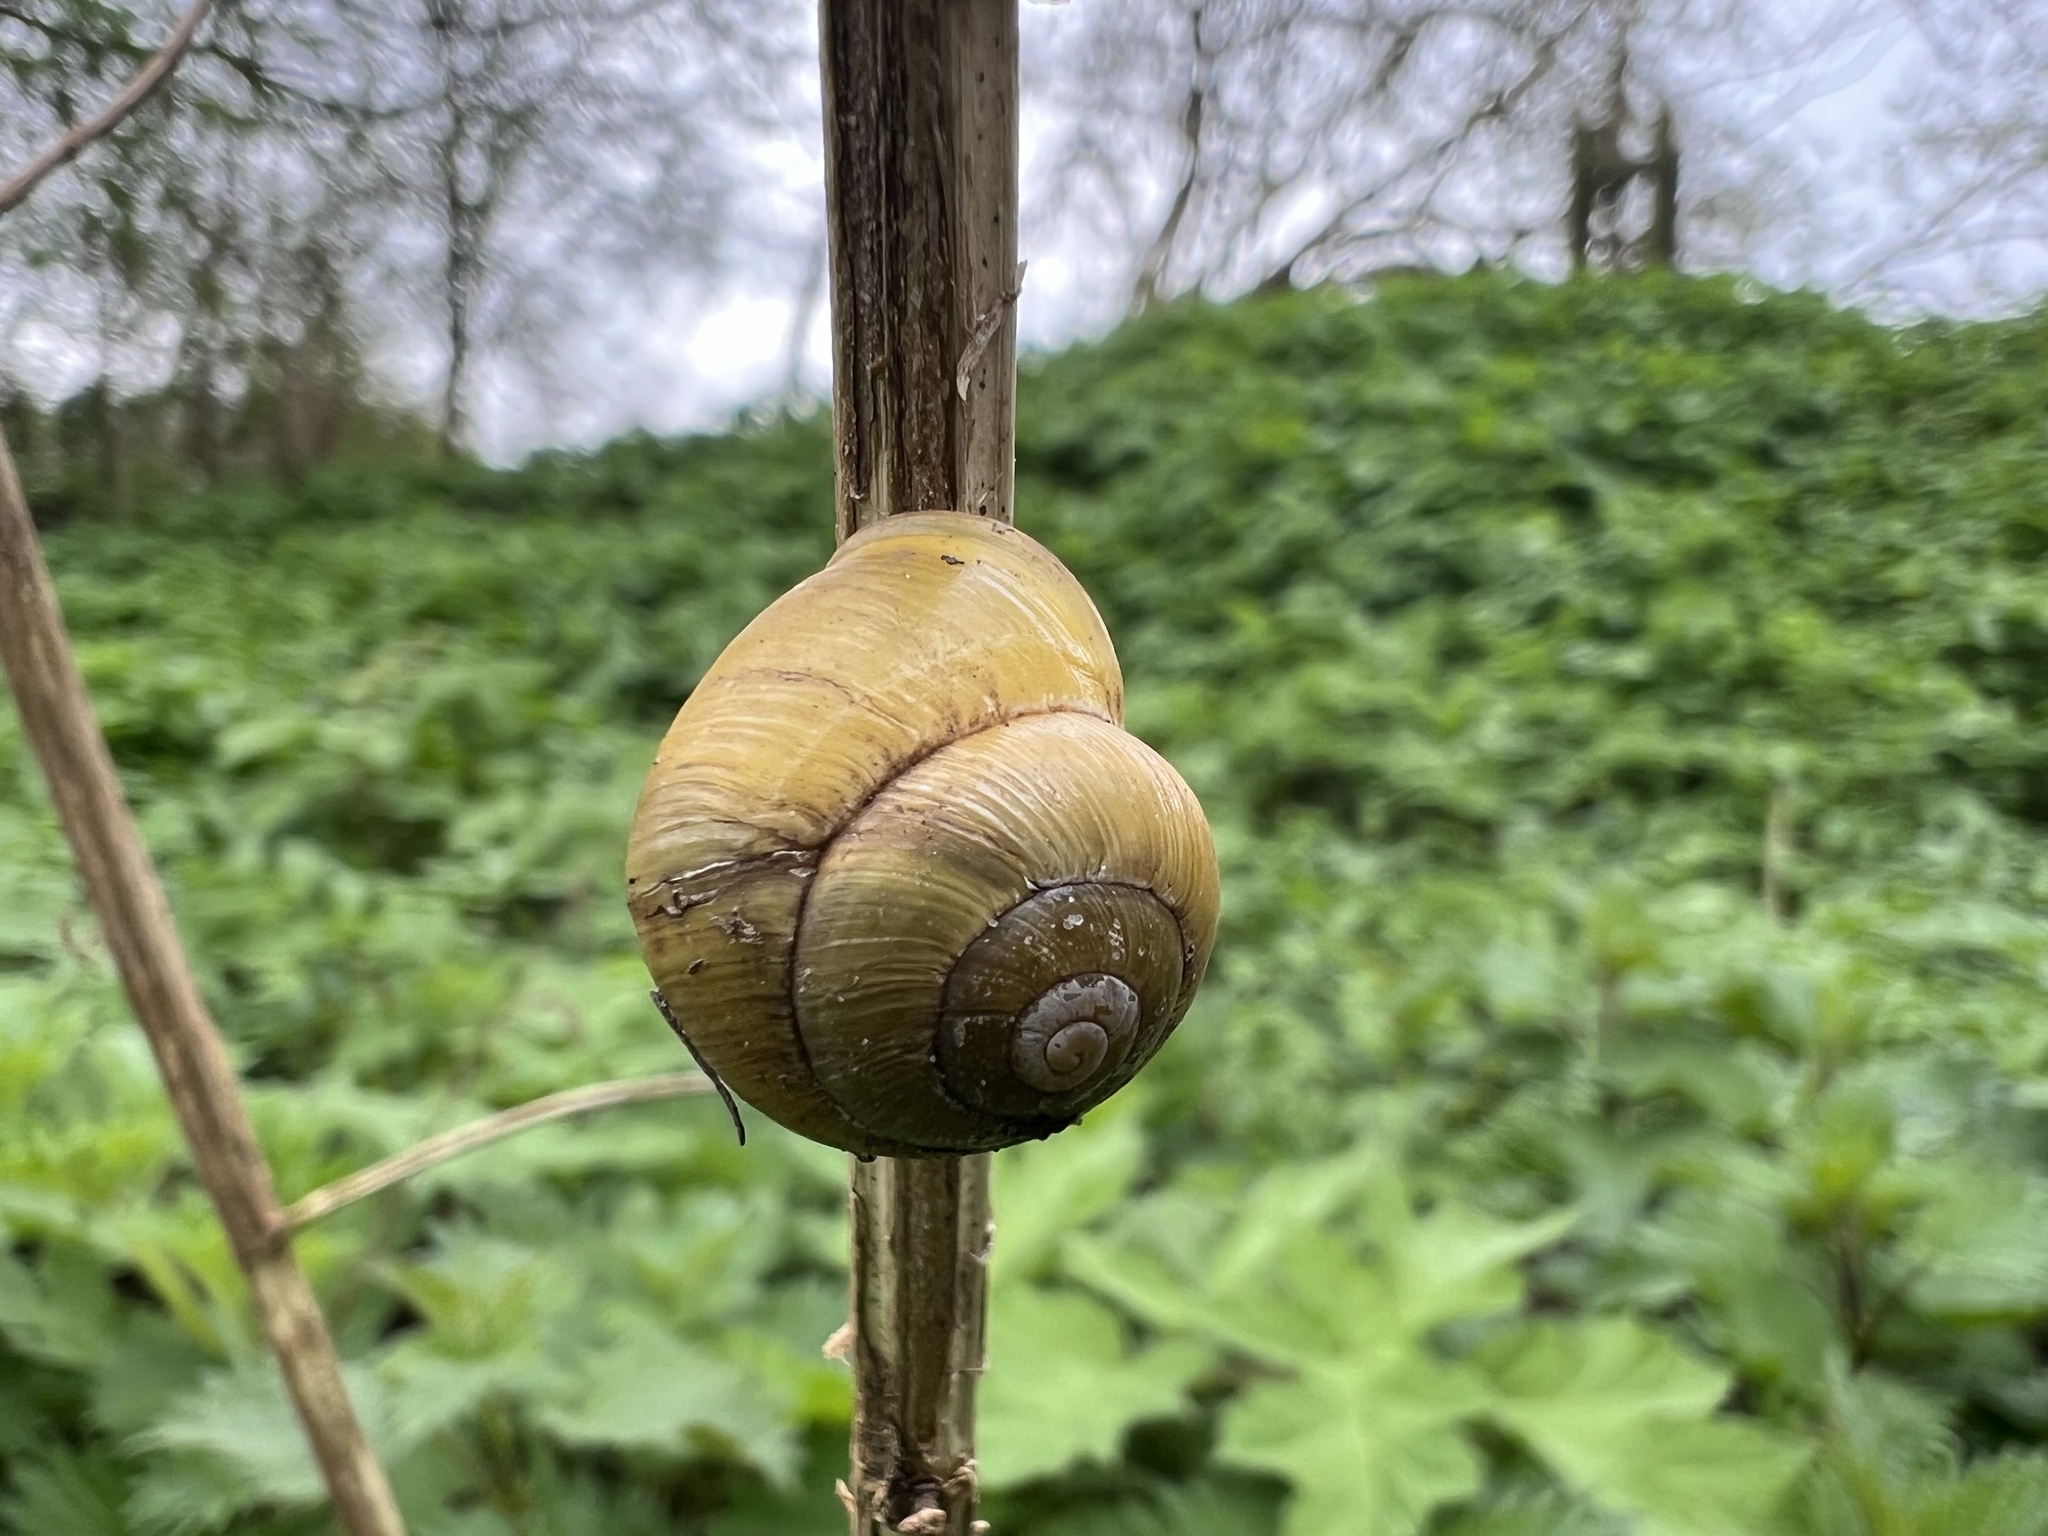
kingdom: Animalia
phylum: Mollusca
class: Gastropoda
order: Stylommatophora
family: Helicidae
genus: Cepaea
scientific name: Cepaea hortensis
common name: White-lip gardensnail
